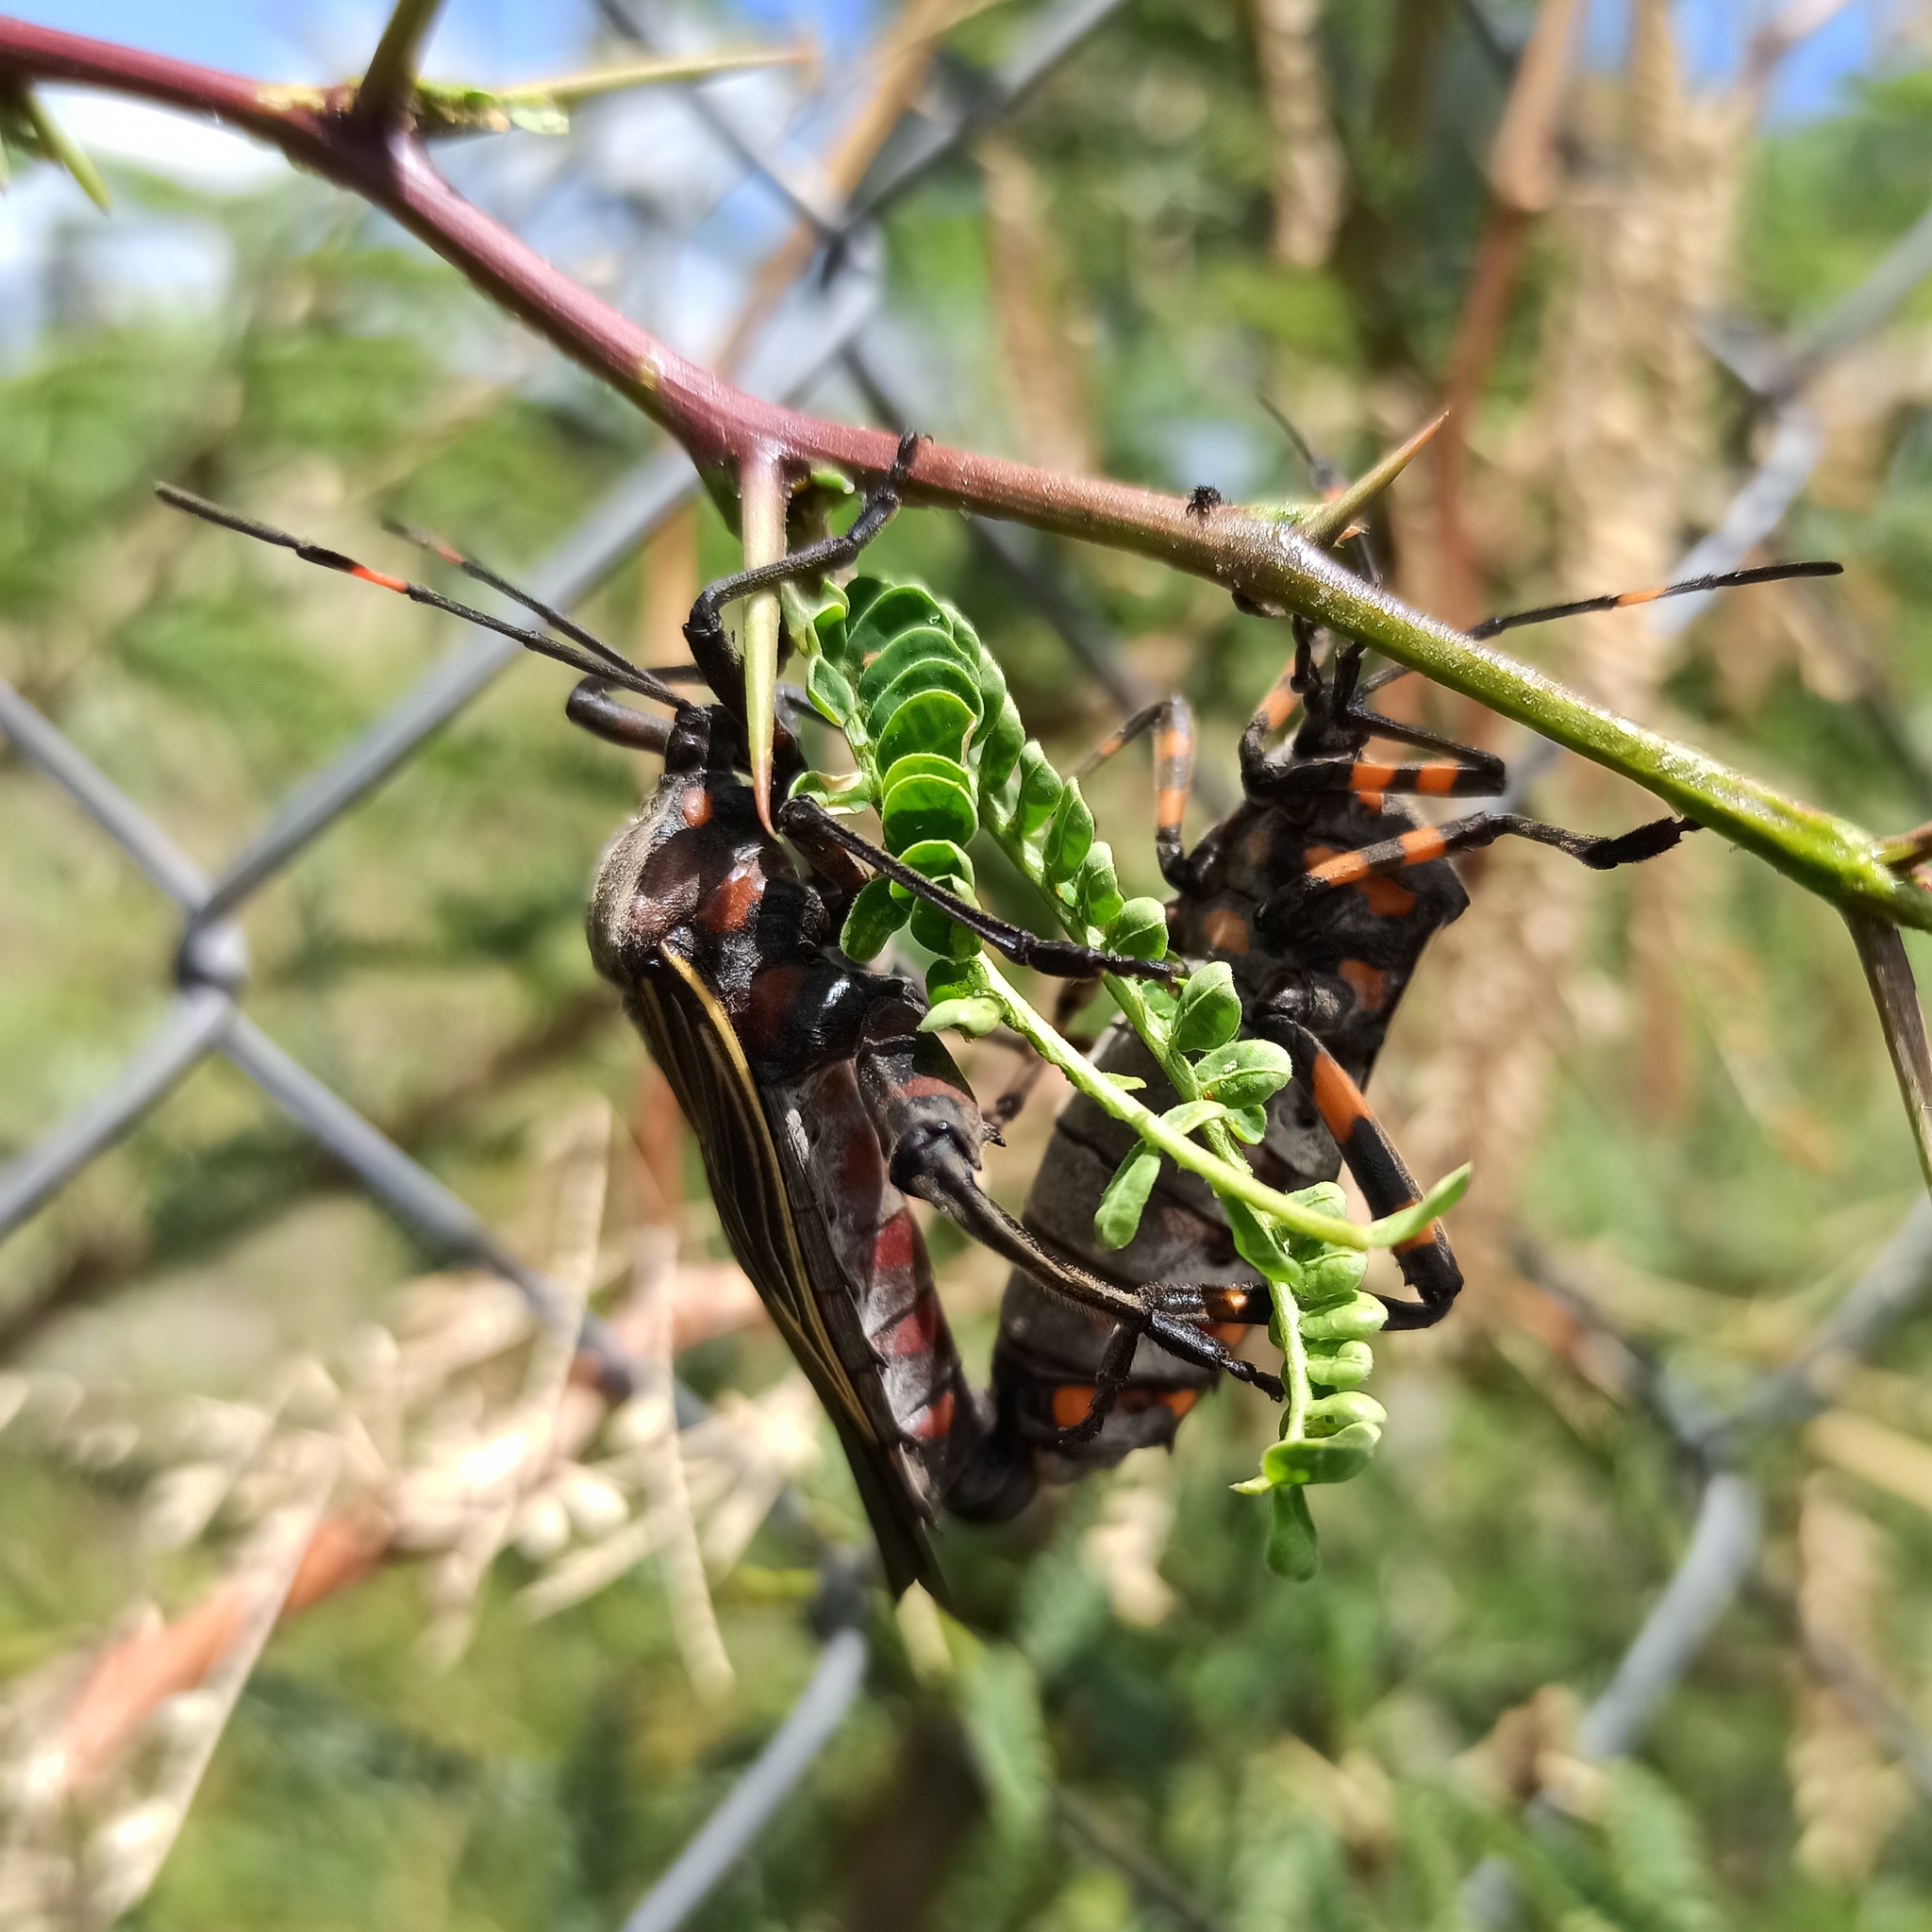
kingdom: Animalia
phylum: Arthropoda
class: Insecta
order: Hemiptera
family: Coreidae
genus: Thasus
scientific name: Thasus
